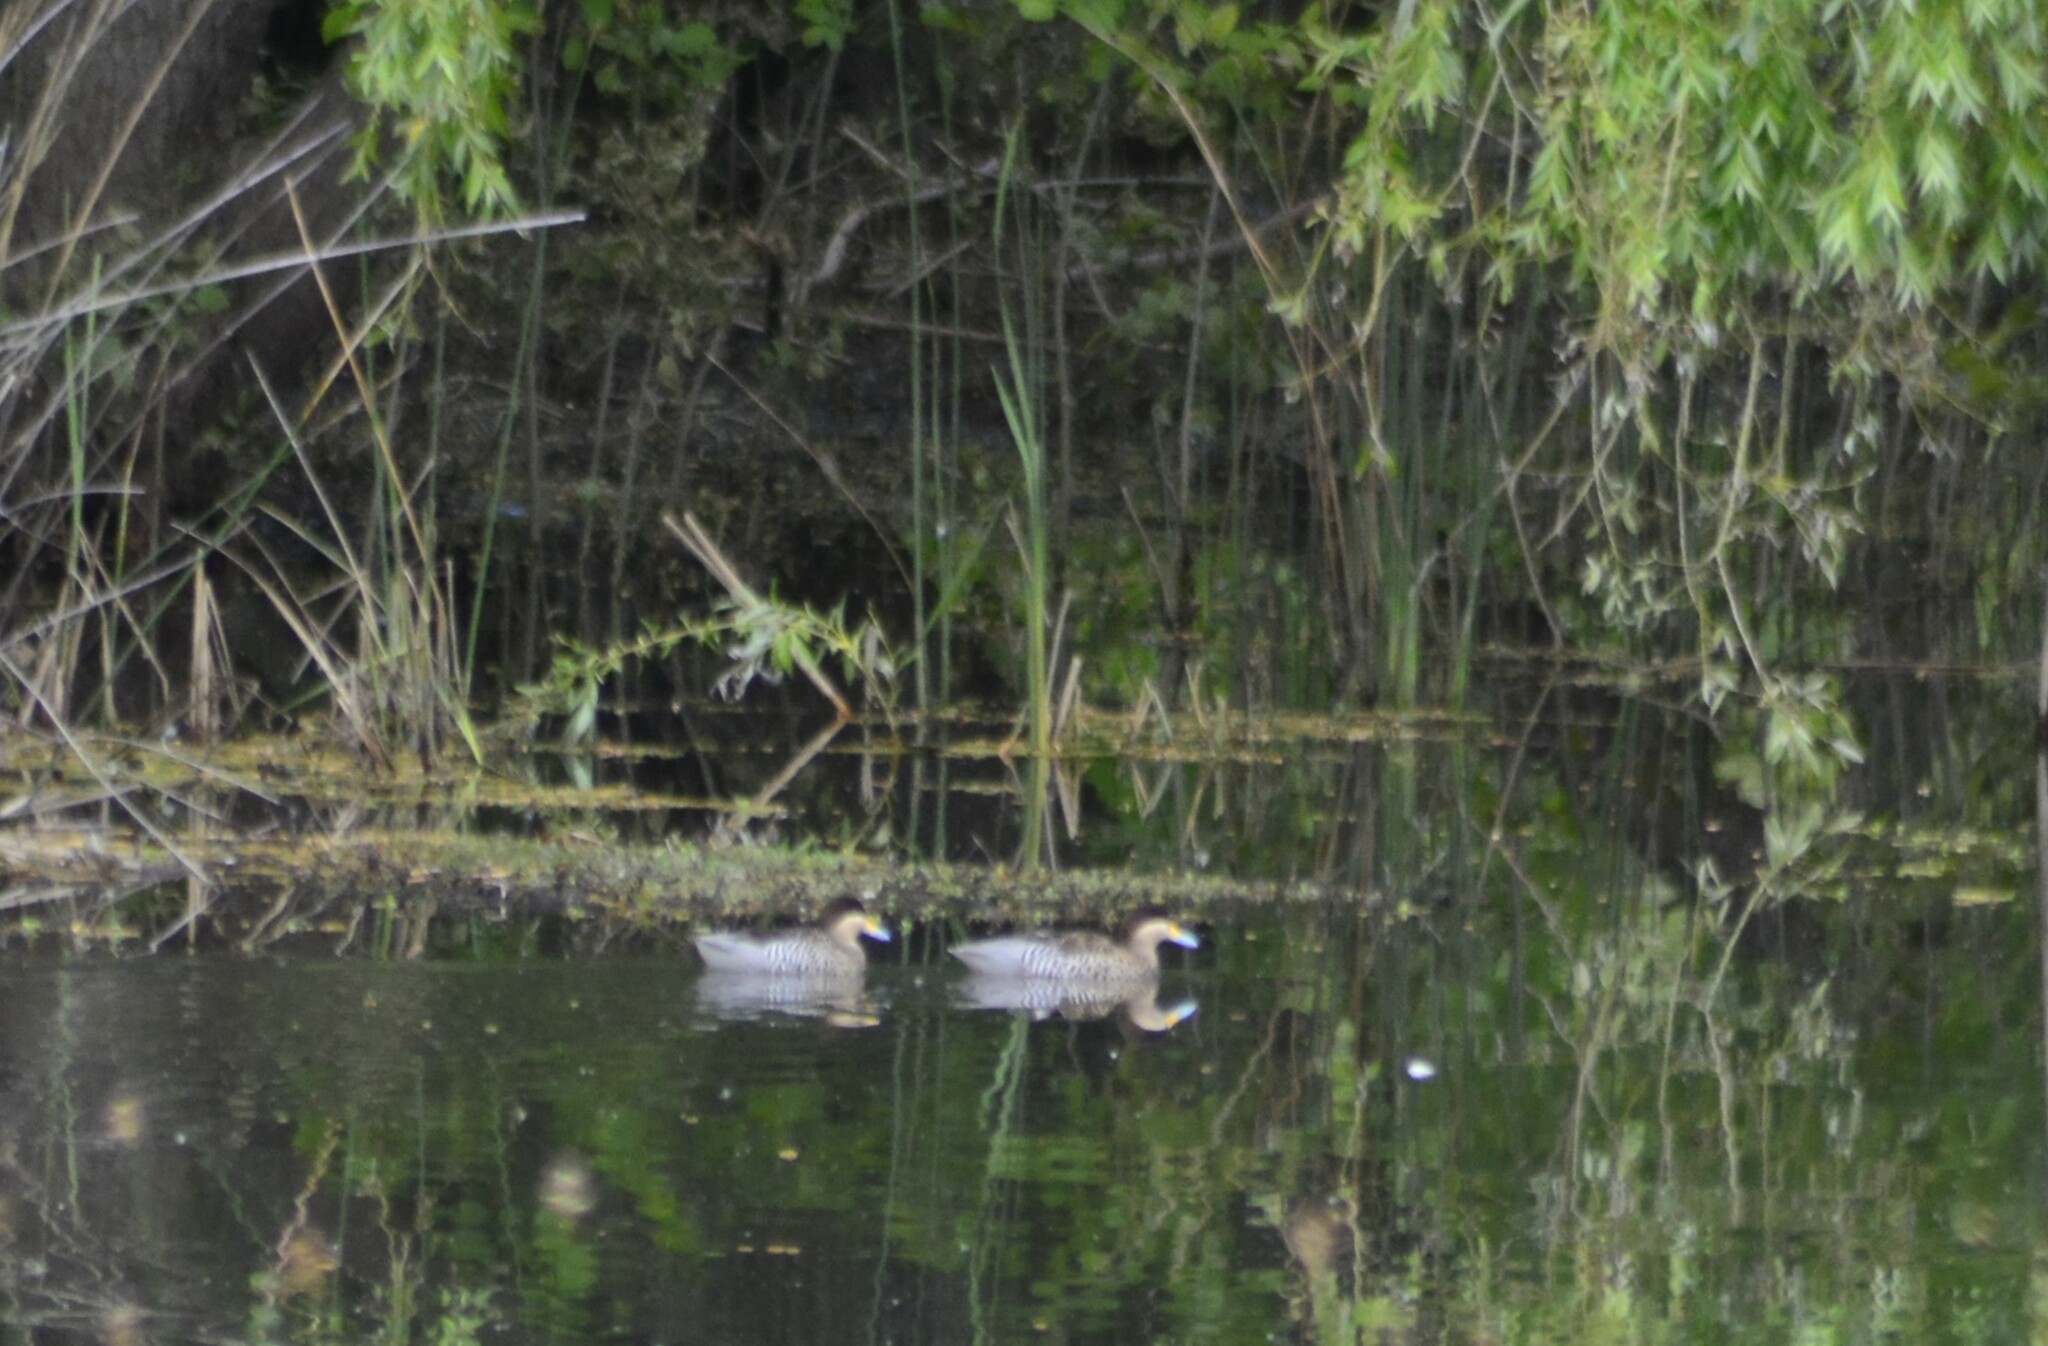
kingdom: Animalia
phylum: Chordata
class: Aves
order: Anseriformes
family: Anatidae
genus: Spatula
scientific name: Spatula versicolor
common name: Silver teal
